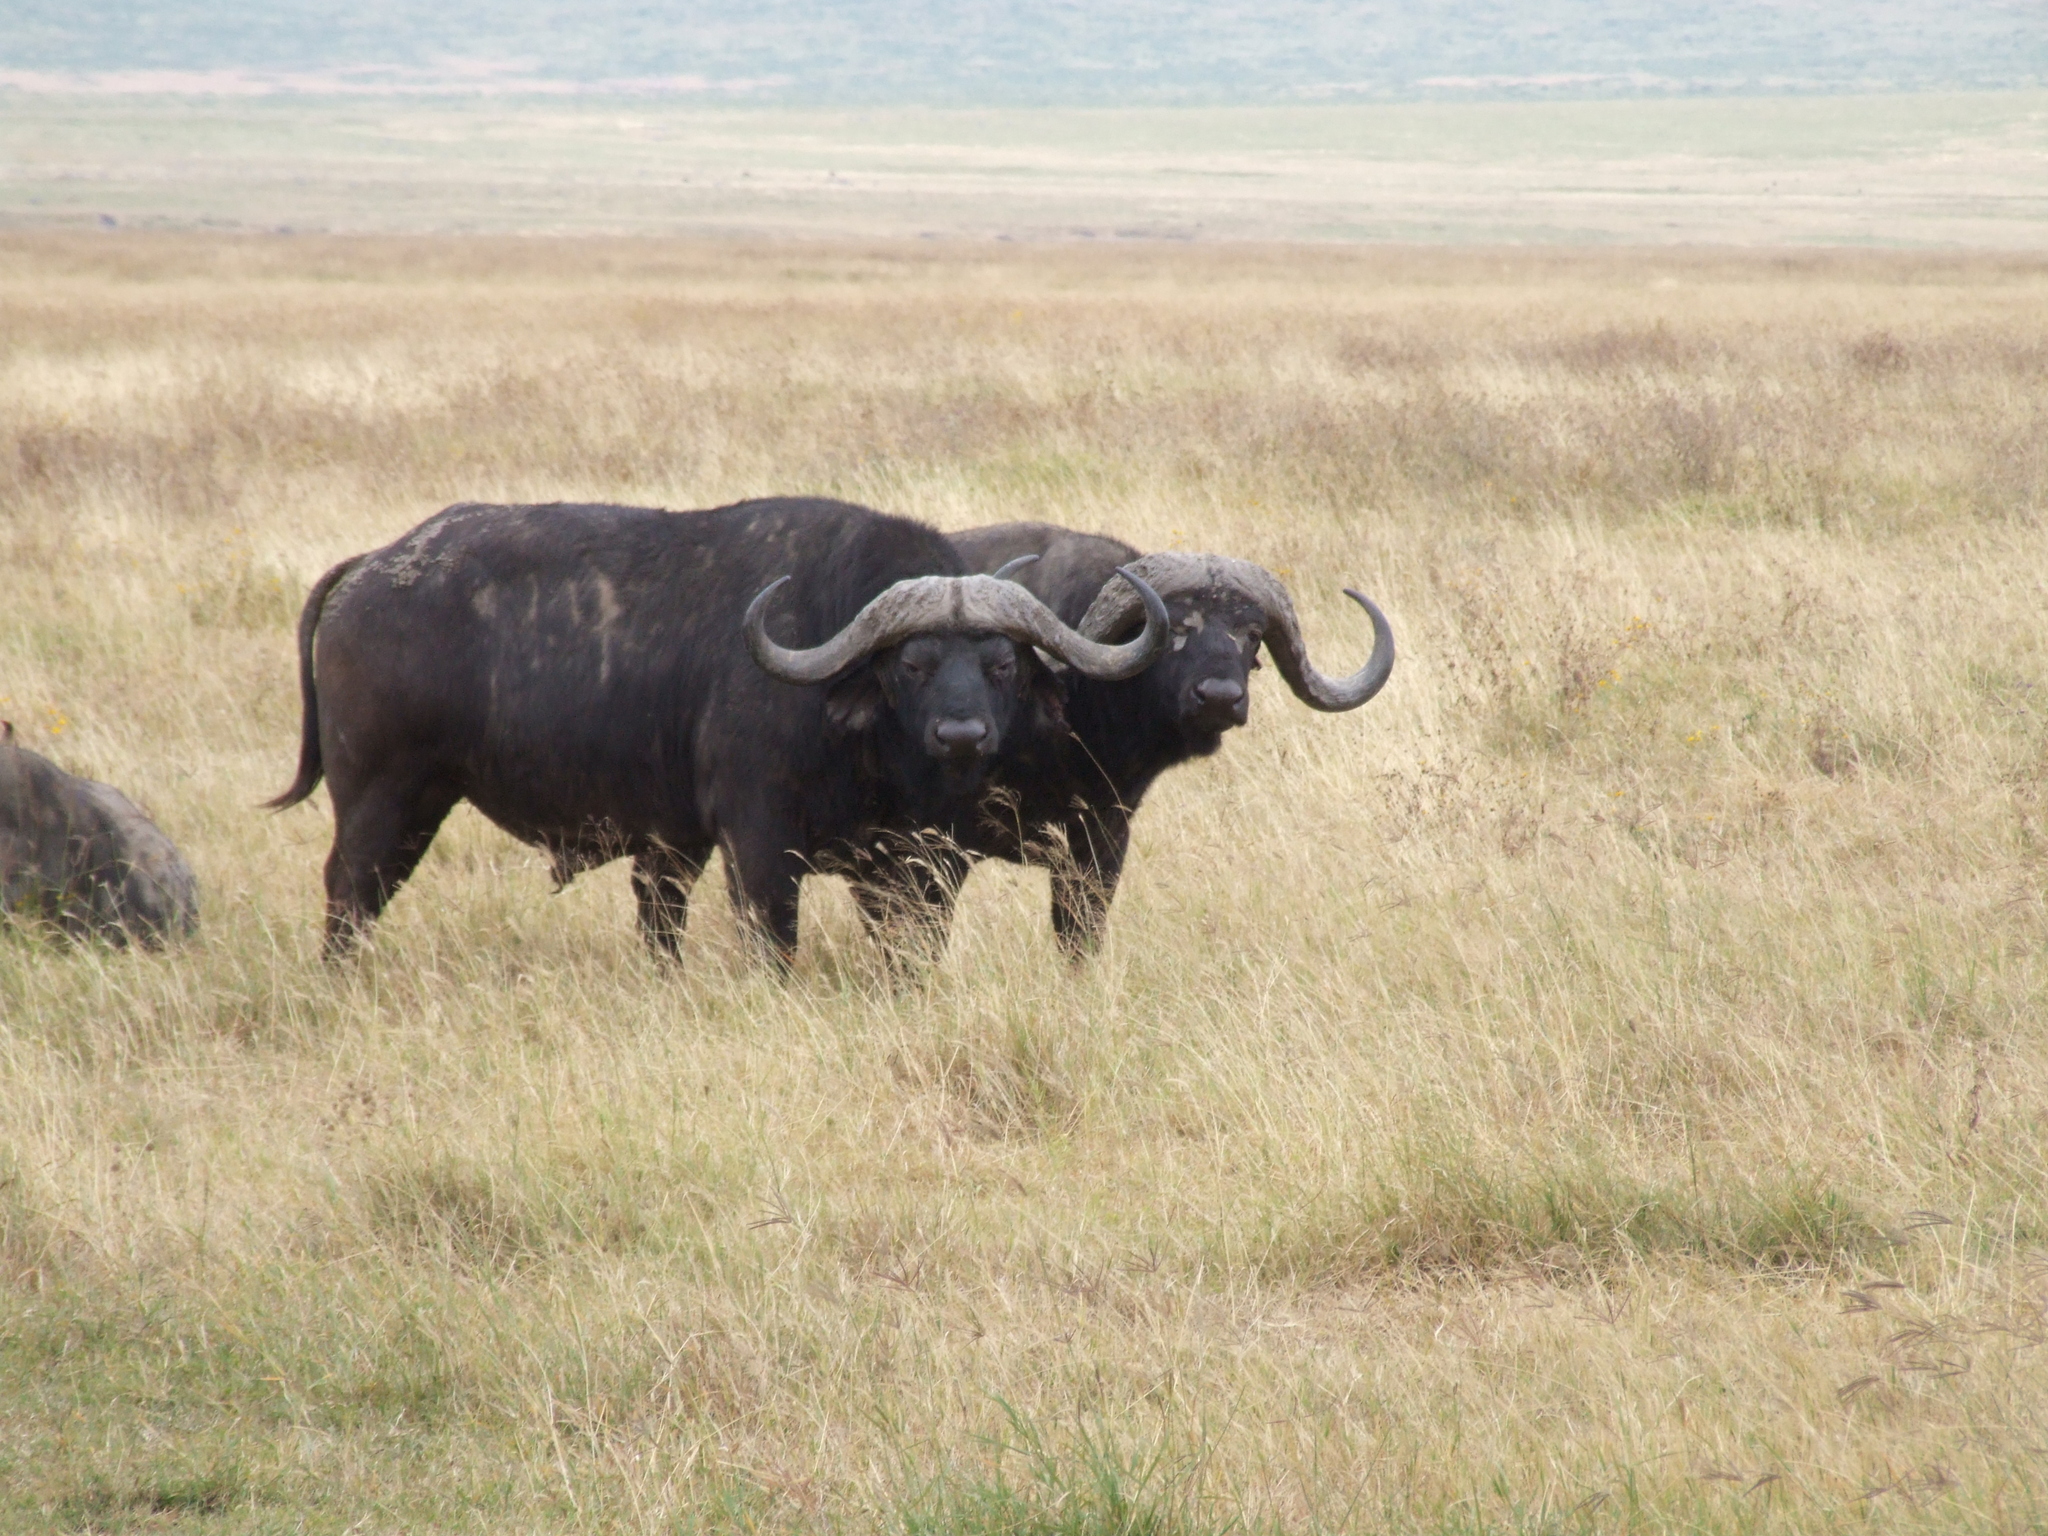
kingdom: Animalia
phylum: Chordata
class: Mammalia
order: Artiodactyla
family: Bovidae
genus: Syncerus
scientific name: Syncerus caffer
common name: African buffalo
